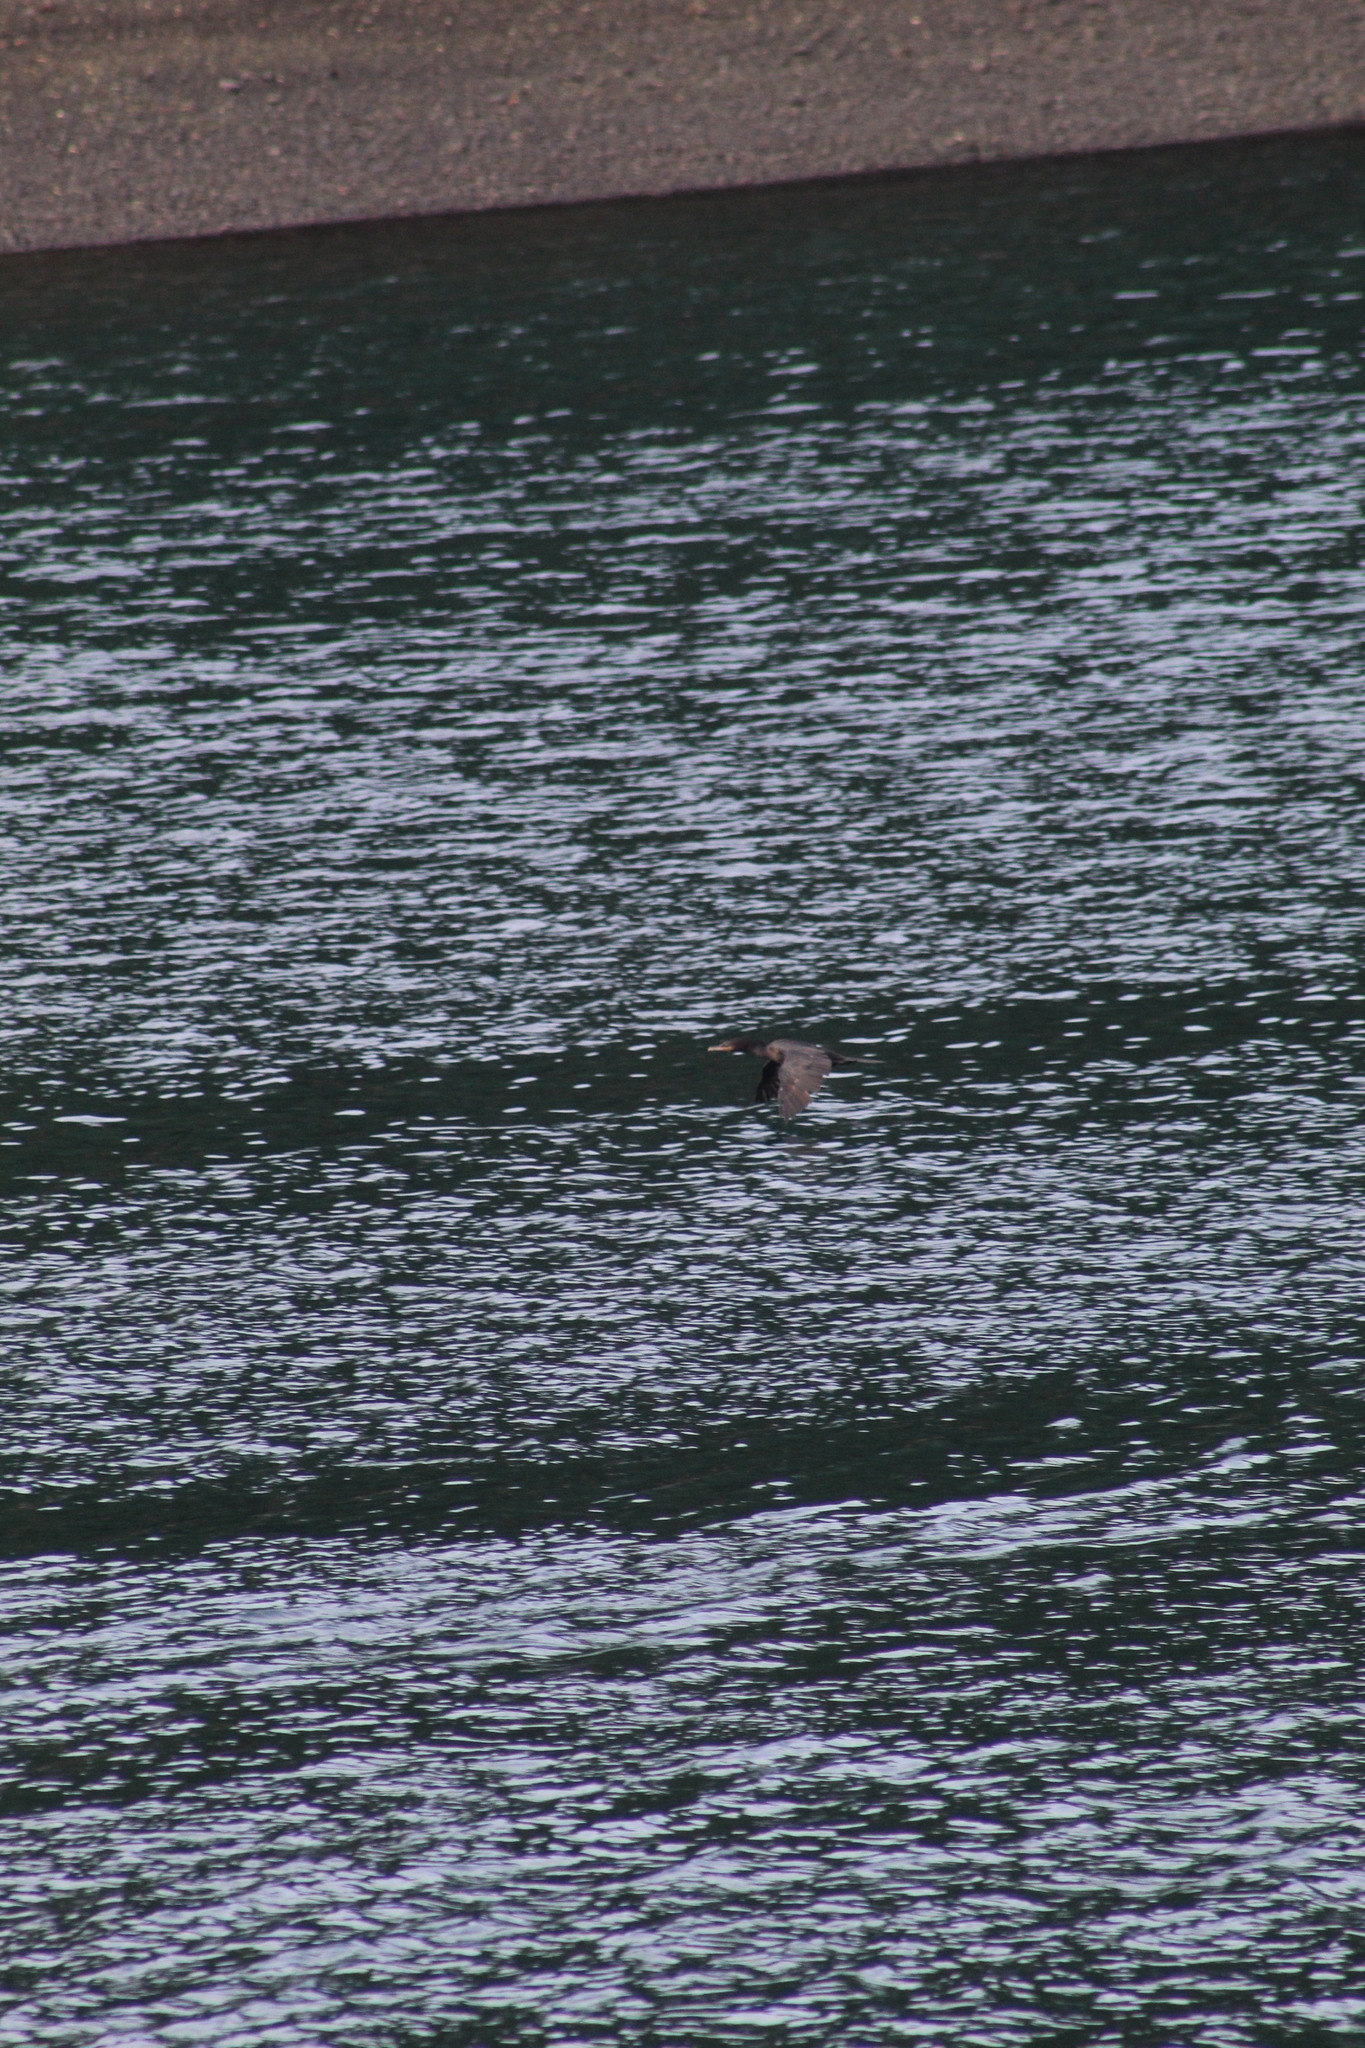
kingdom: Animalia
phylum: Chordata
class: Aves
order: Suliformes
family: Phalacrocoracidae
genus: Phalacrocorax
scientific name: Phalacrocorax brasilianus
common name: Neotropic cormorant
